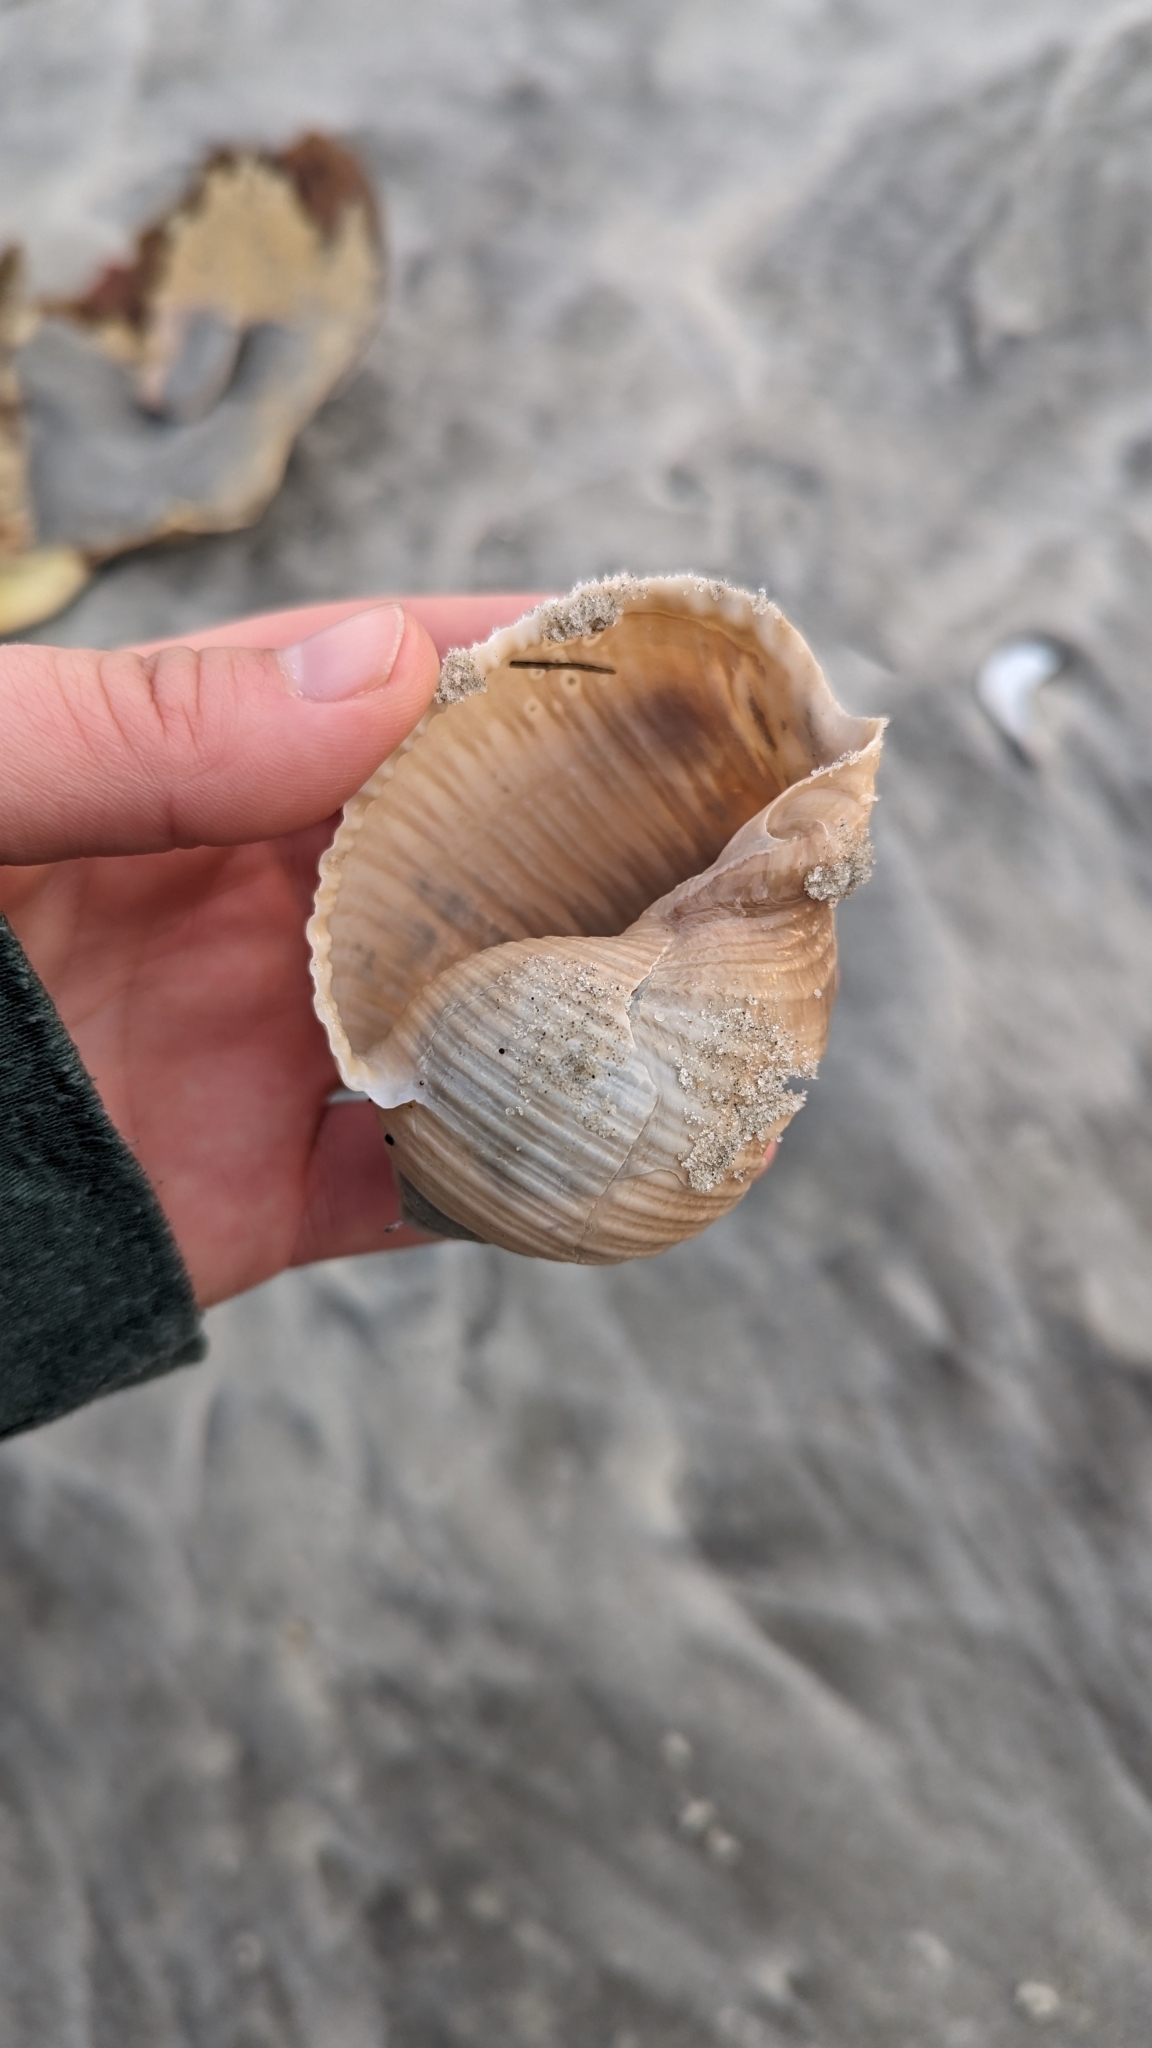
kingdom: Animalia
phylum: Mollusca
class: Gastropoda
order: Littorinimorpha
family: Tonnidae
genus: Tonna
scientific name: Tonna galea
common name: Giant tun
